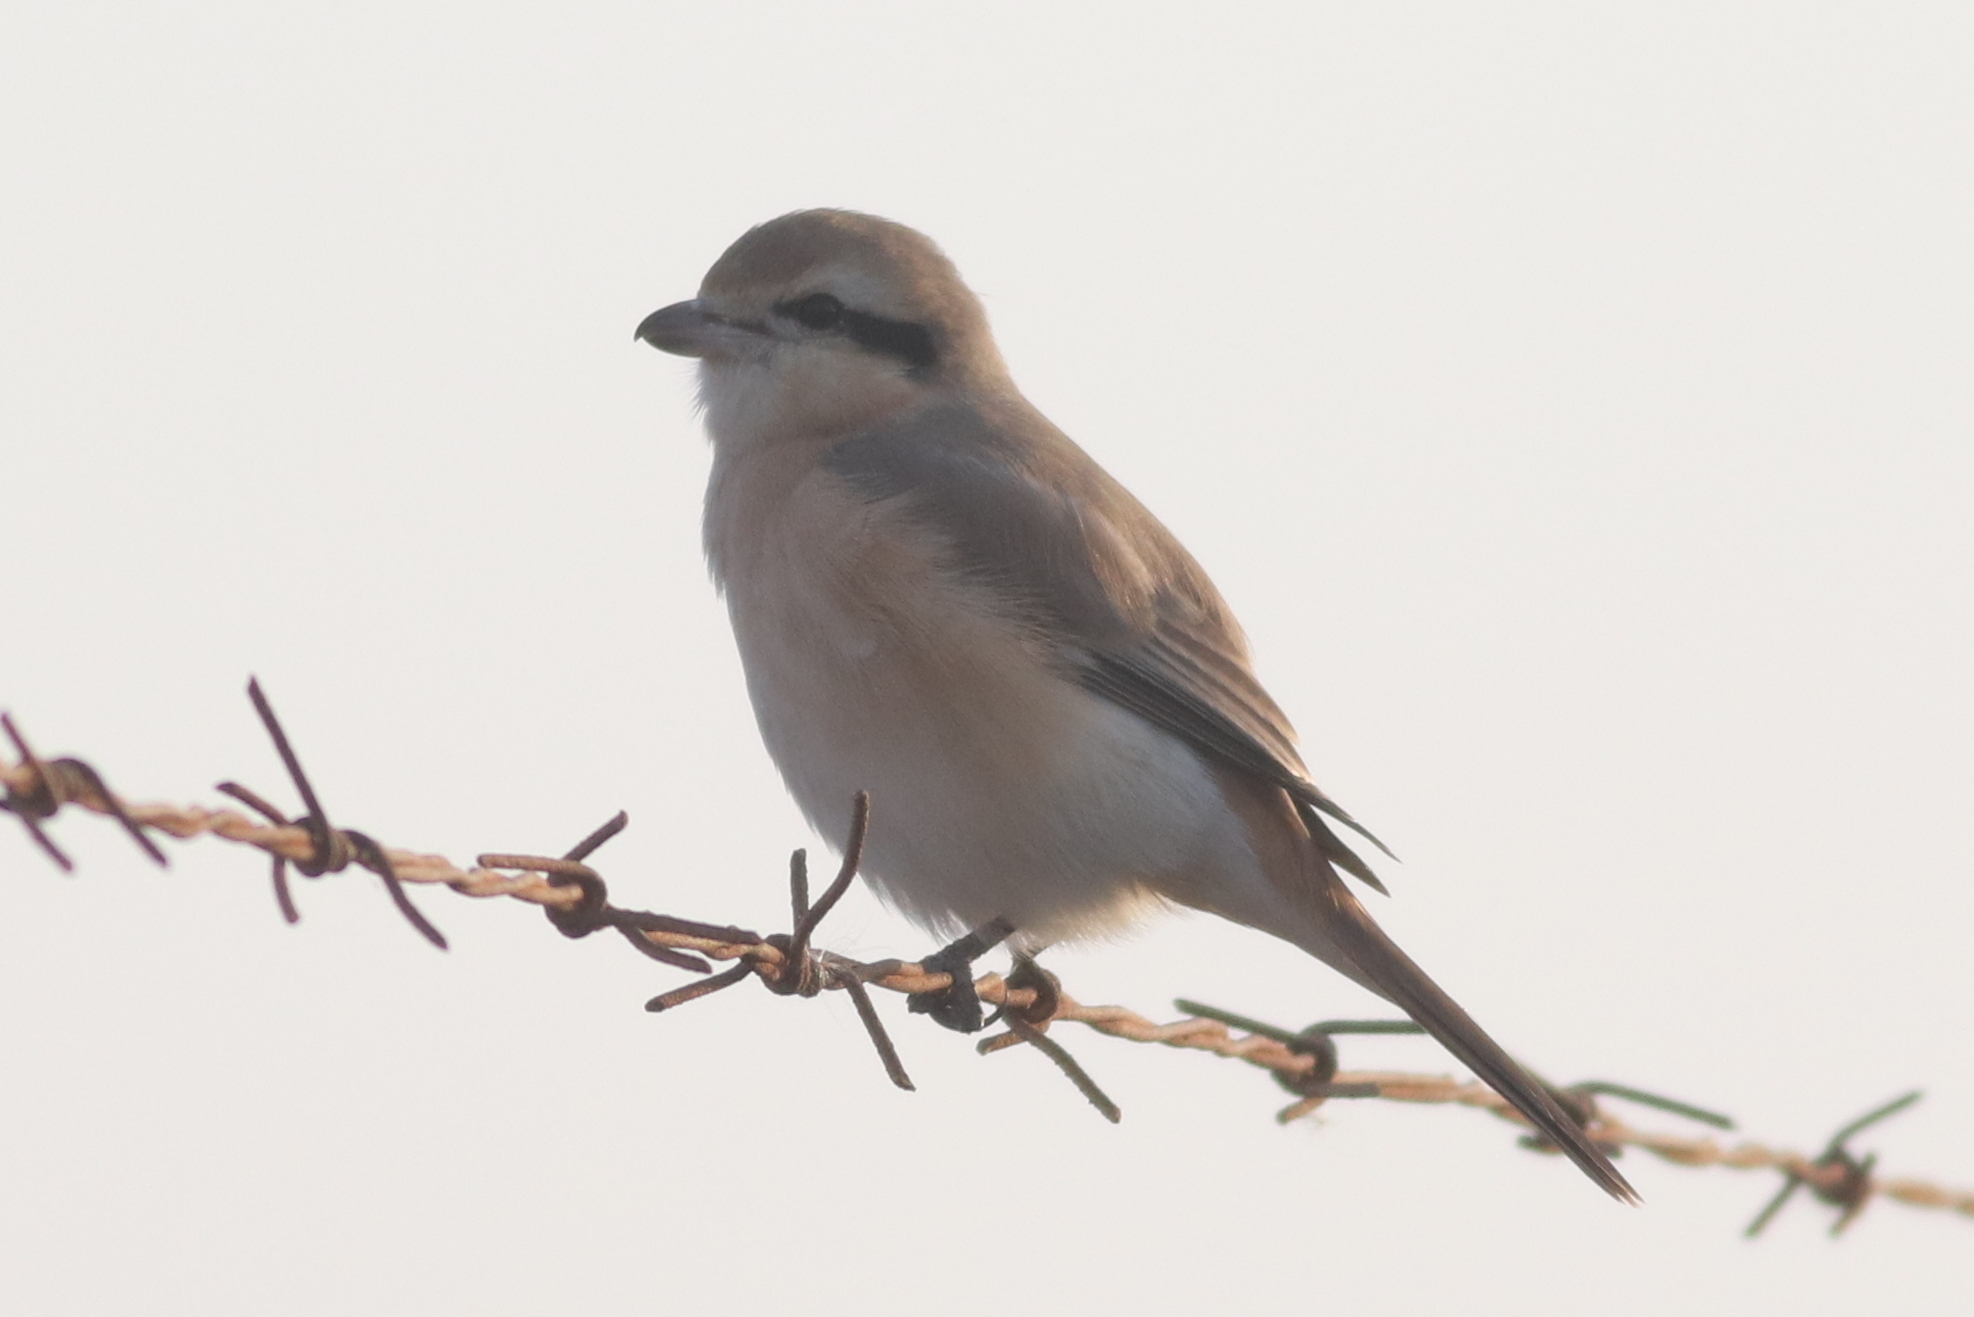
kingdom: Animalia
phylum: Chordata
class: Aves
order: Passeriformes
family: Laniidae
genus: Lanius
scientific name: Lanius isabellinus
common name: Isabelline shrike
